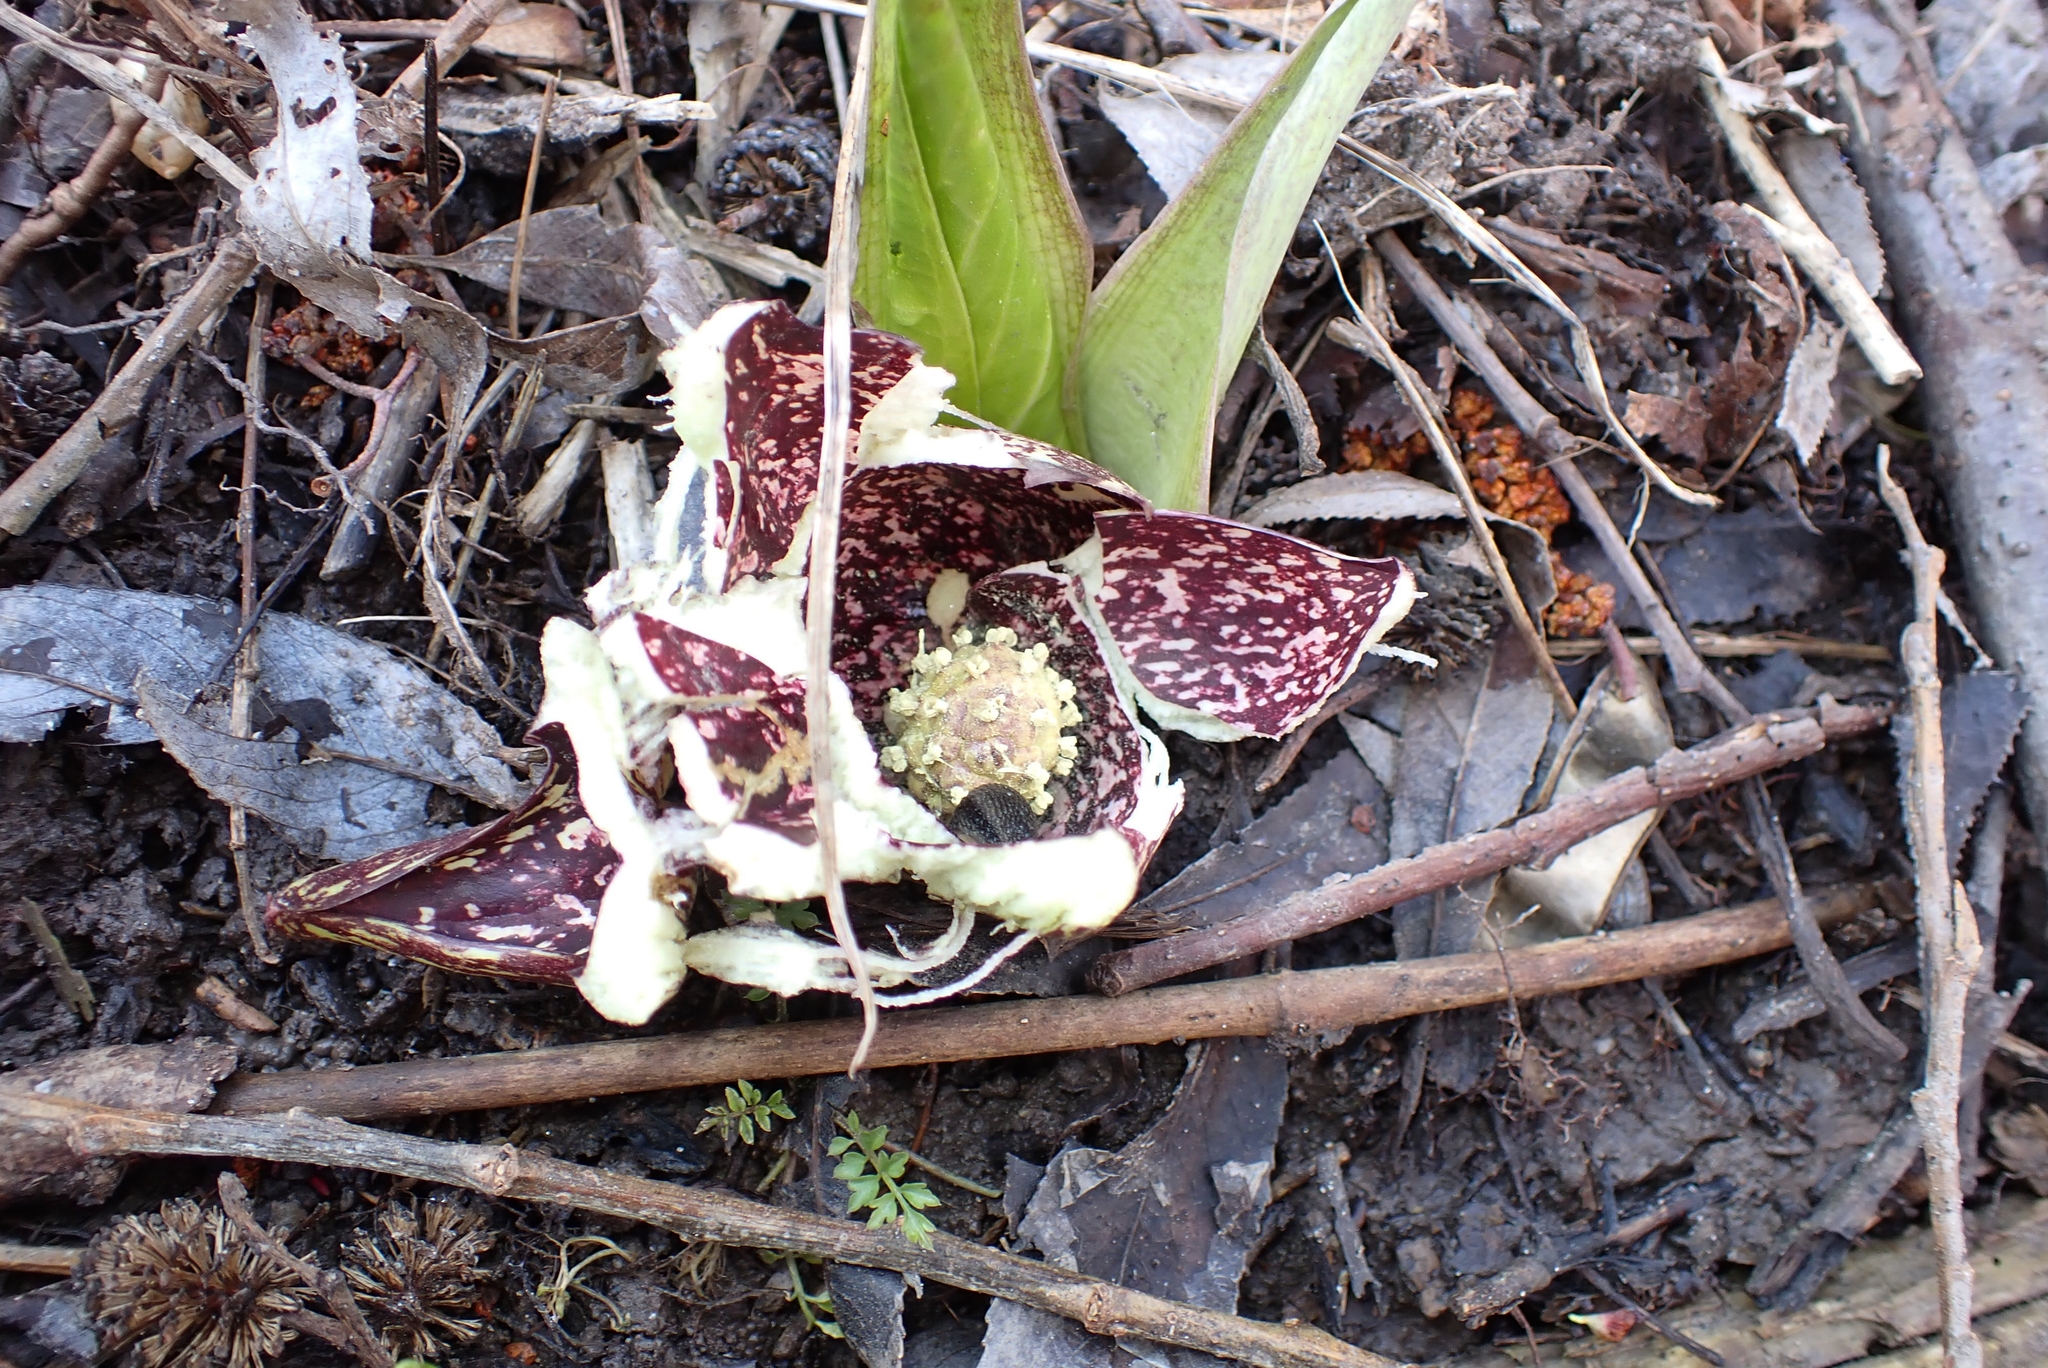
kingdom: Plantae
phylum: Tracheophyta
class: Liliopsida
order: Alismatales
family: Araceae
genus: Symplocarpus
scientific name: Symplocarpus foetidus
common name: Eastern skunk cabbage
